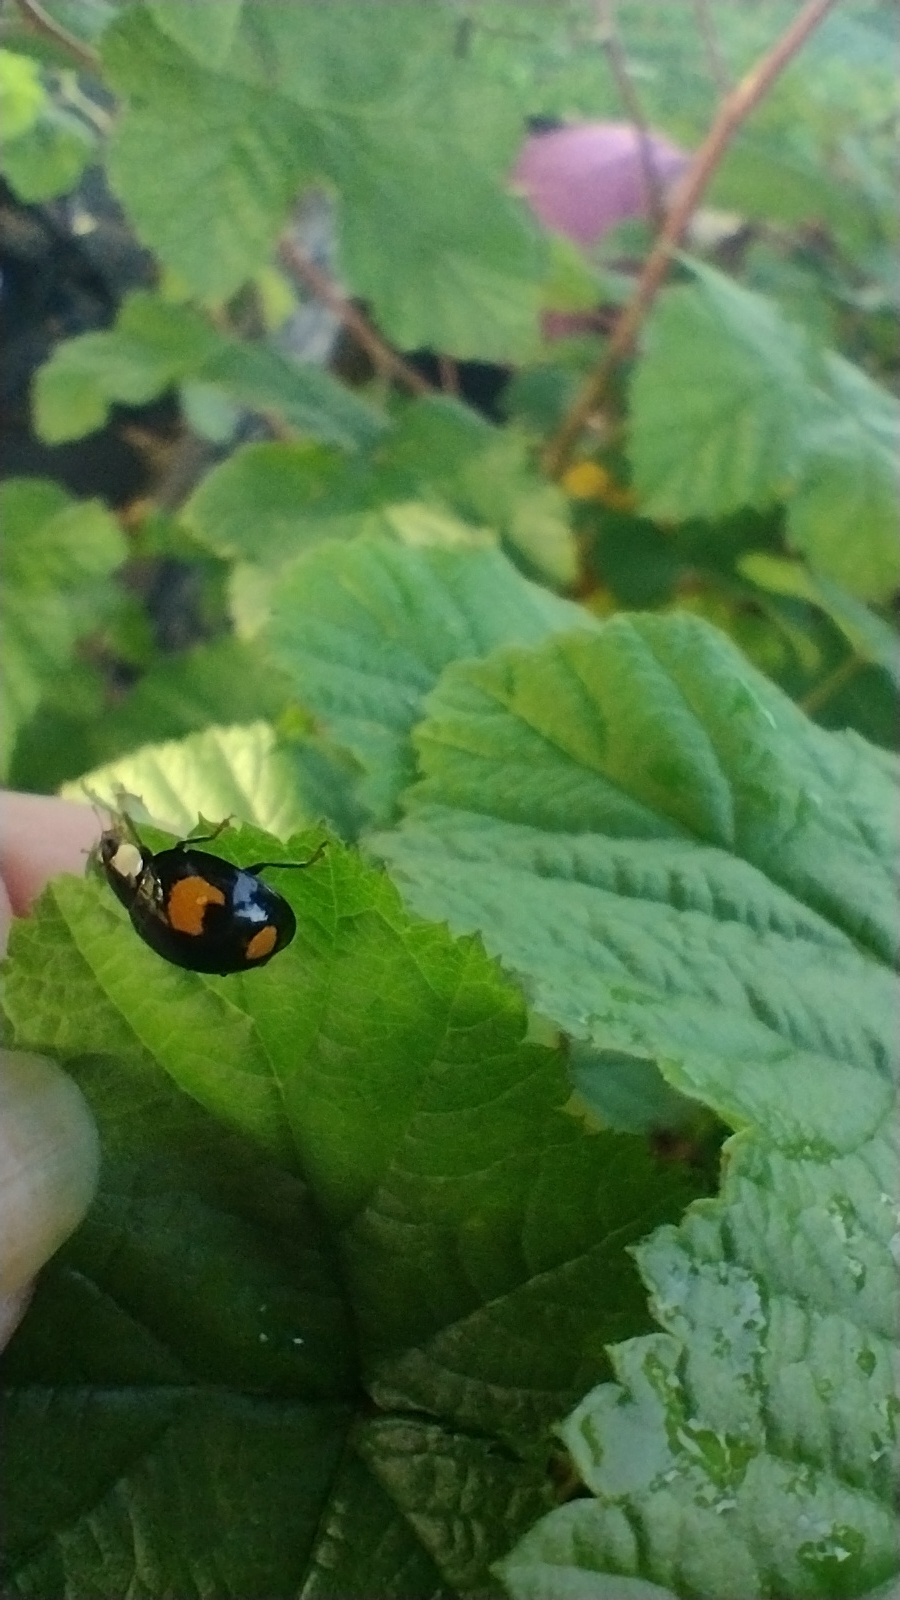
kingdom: Animalia
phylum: Arthropoda
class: Insecta
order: Coleoptera
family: Coccinellidae
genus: Harmonia
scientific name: Harmonia axyridis
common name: Harlequin ladybird
